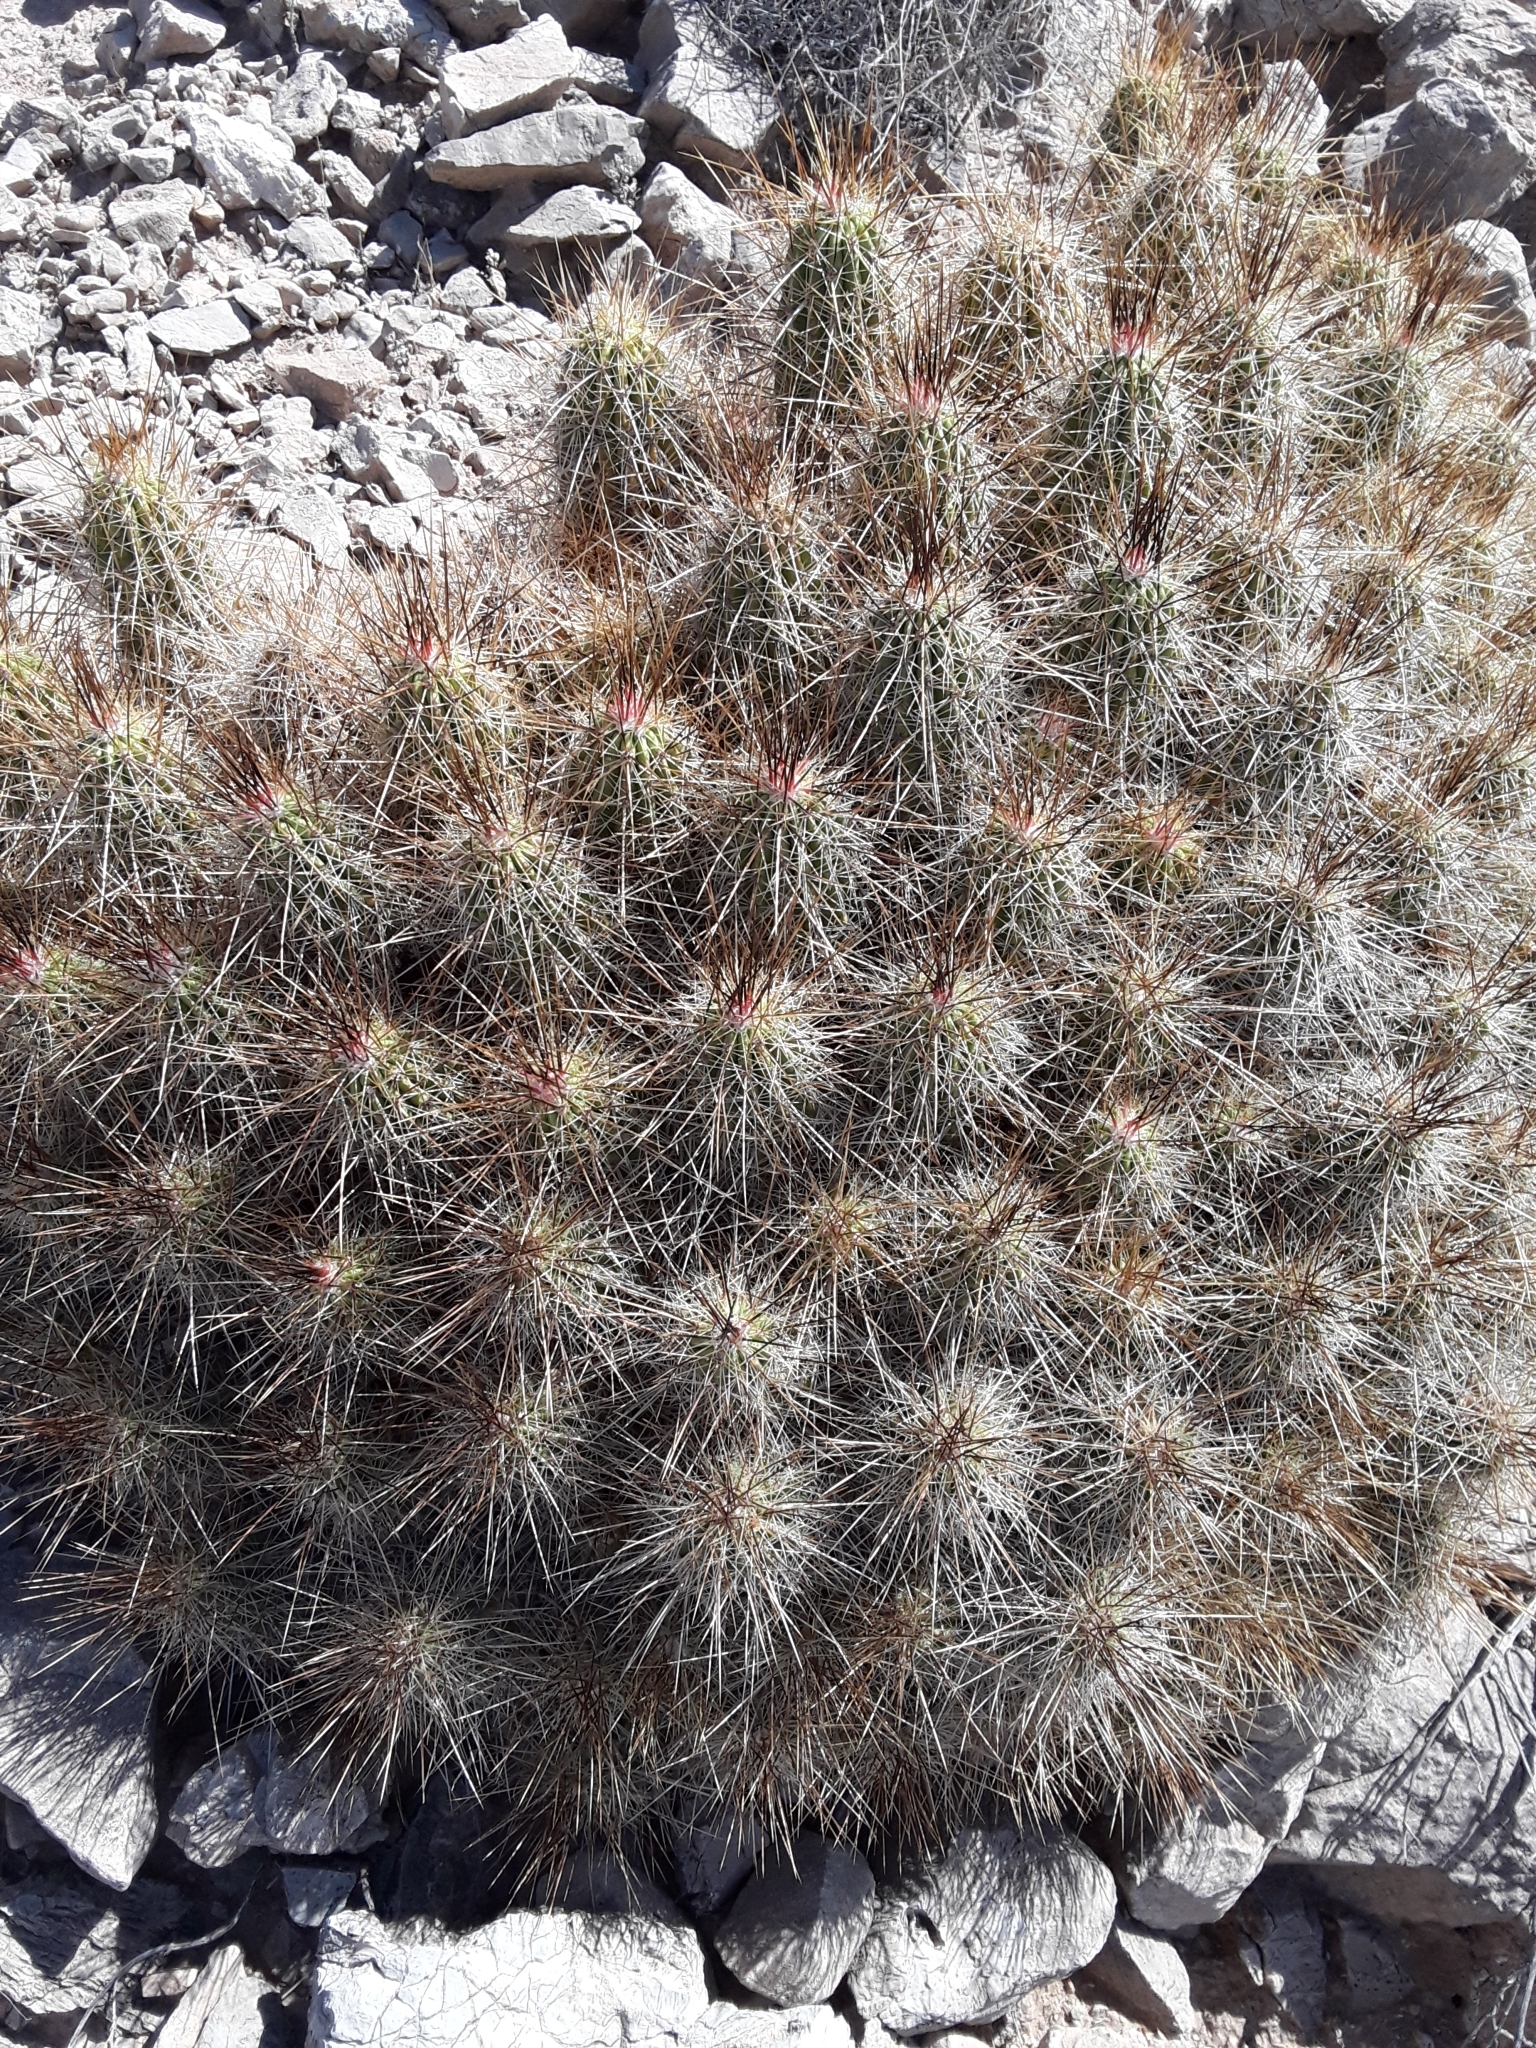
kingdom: Plantae
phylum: Tracheophyta
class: Magnoliopsida
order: Caryophyllales
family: Cactaceae
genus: Echinocereus
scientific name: Echinocereus stramineus
